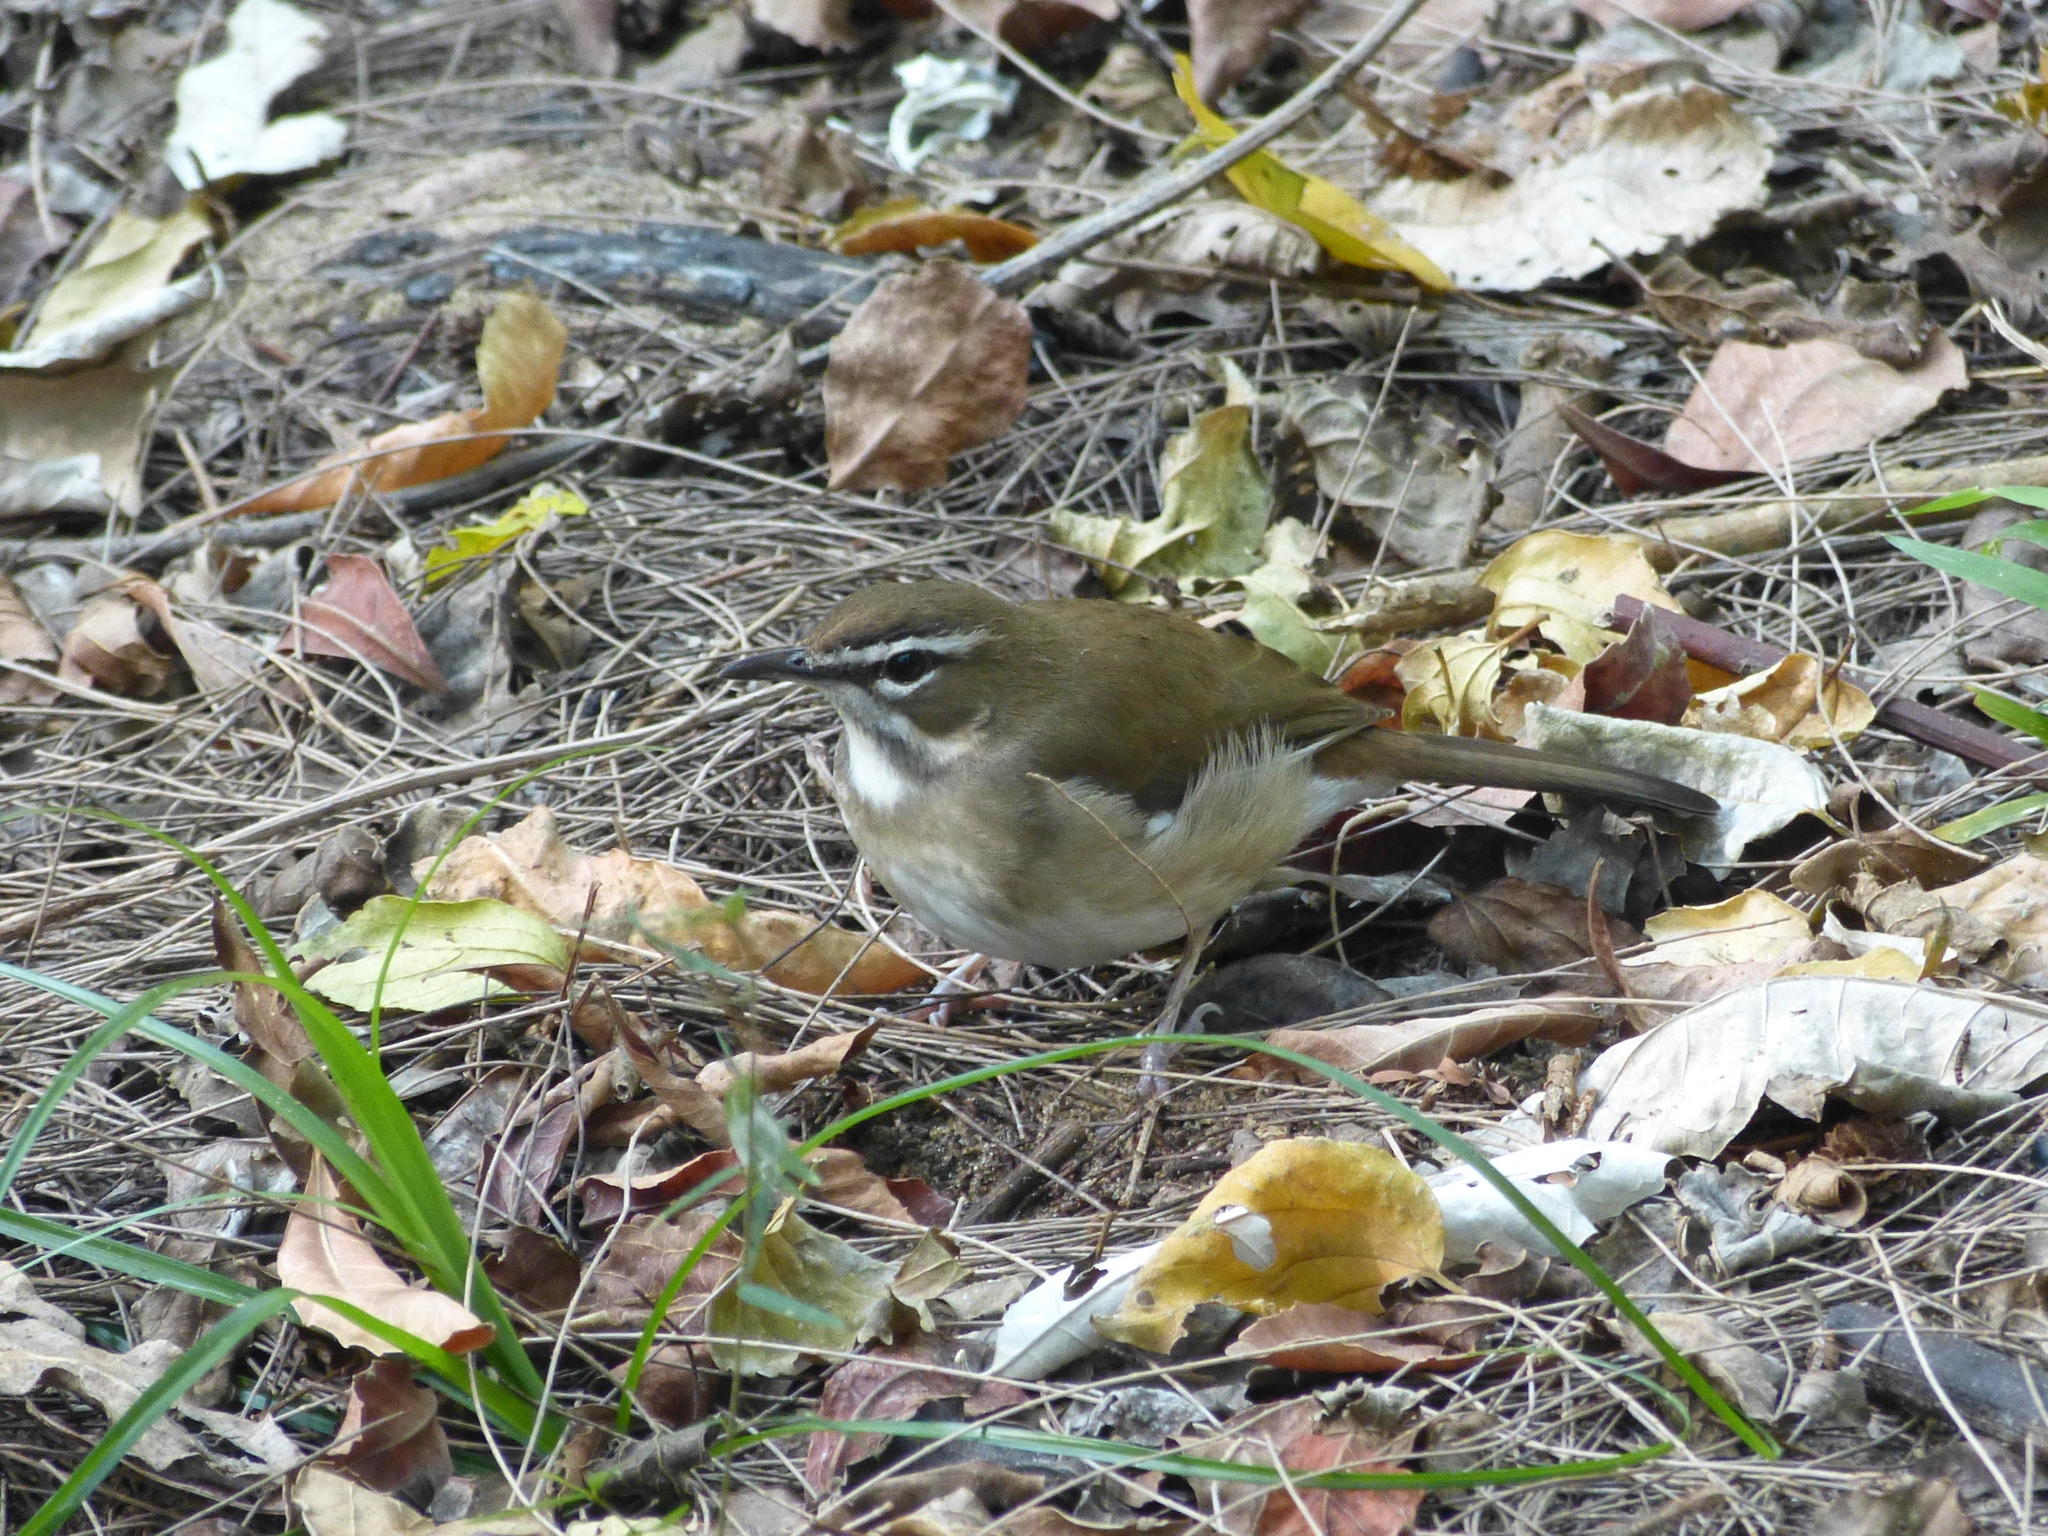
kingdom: Animalia
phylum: Chordata
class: Aves
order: Passeriformes
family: Muscicapidae
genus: Erythropygia
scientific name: Erythropygia signata
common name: Brown scrub robin
